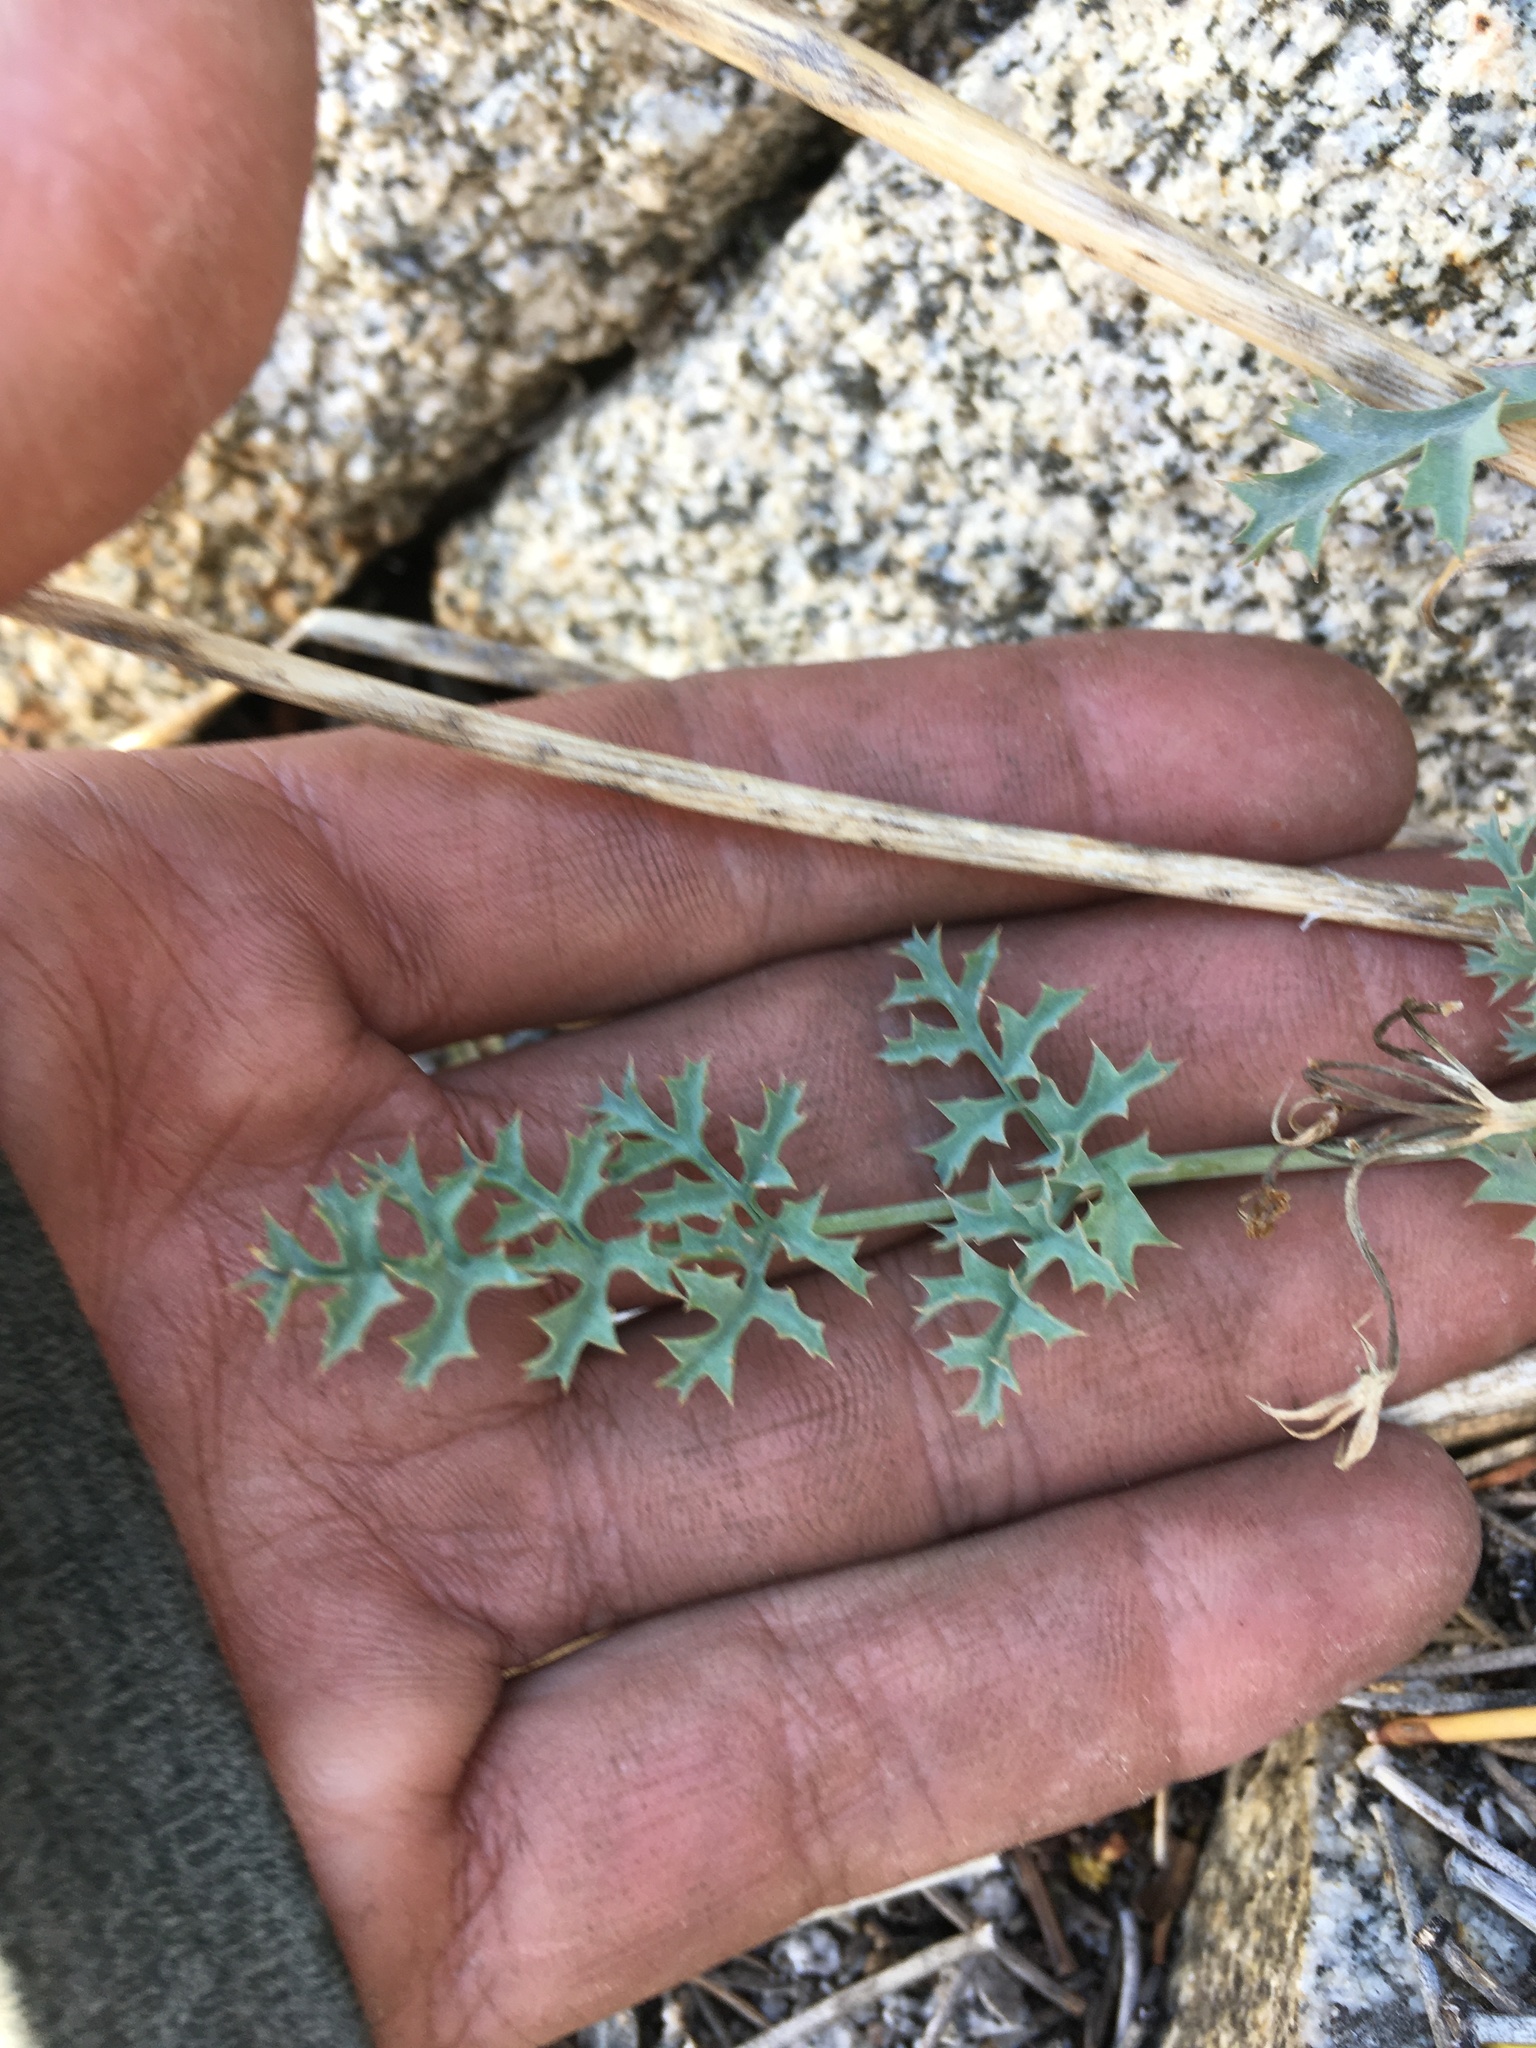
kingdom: Plantae
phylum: Tracheophyta
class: Magnoliopsida
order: Apiales
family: Apiaceae
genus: Lomatium
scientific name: Lomatium rigidum
